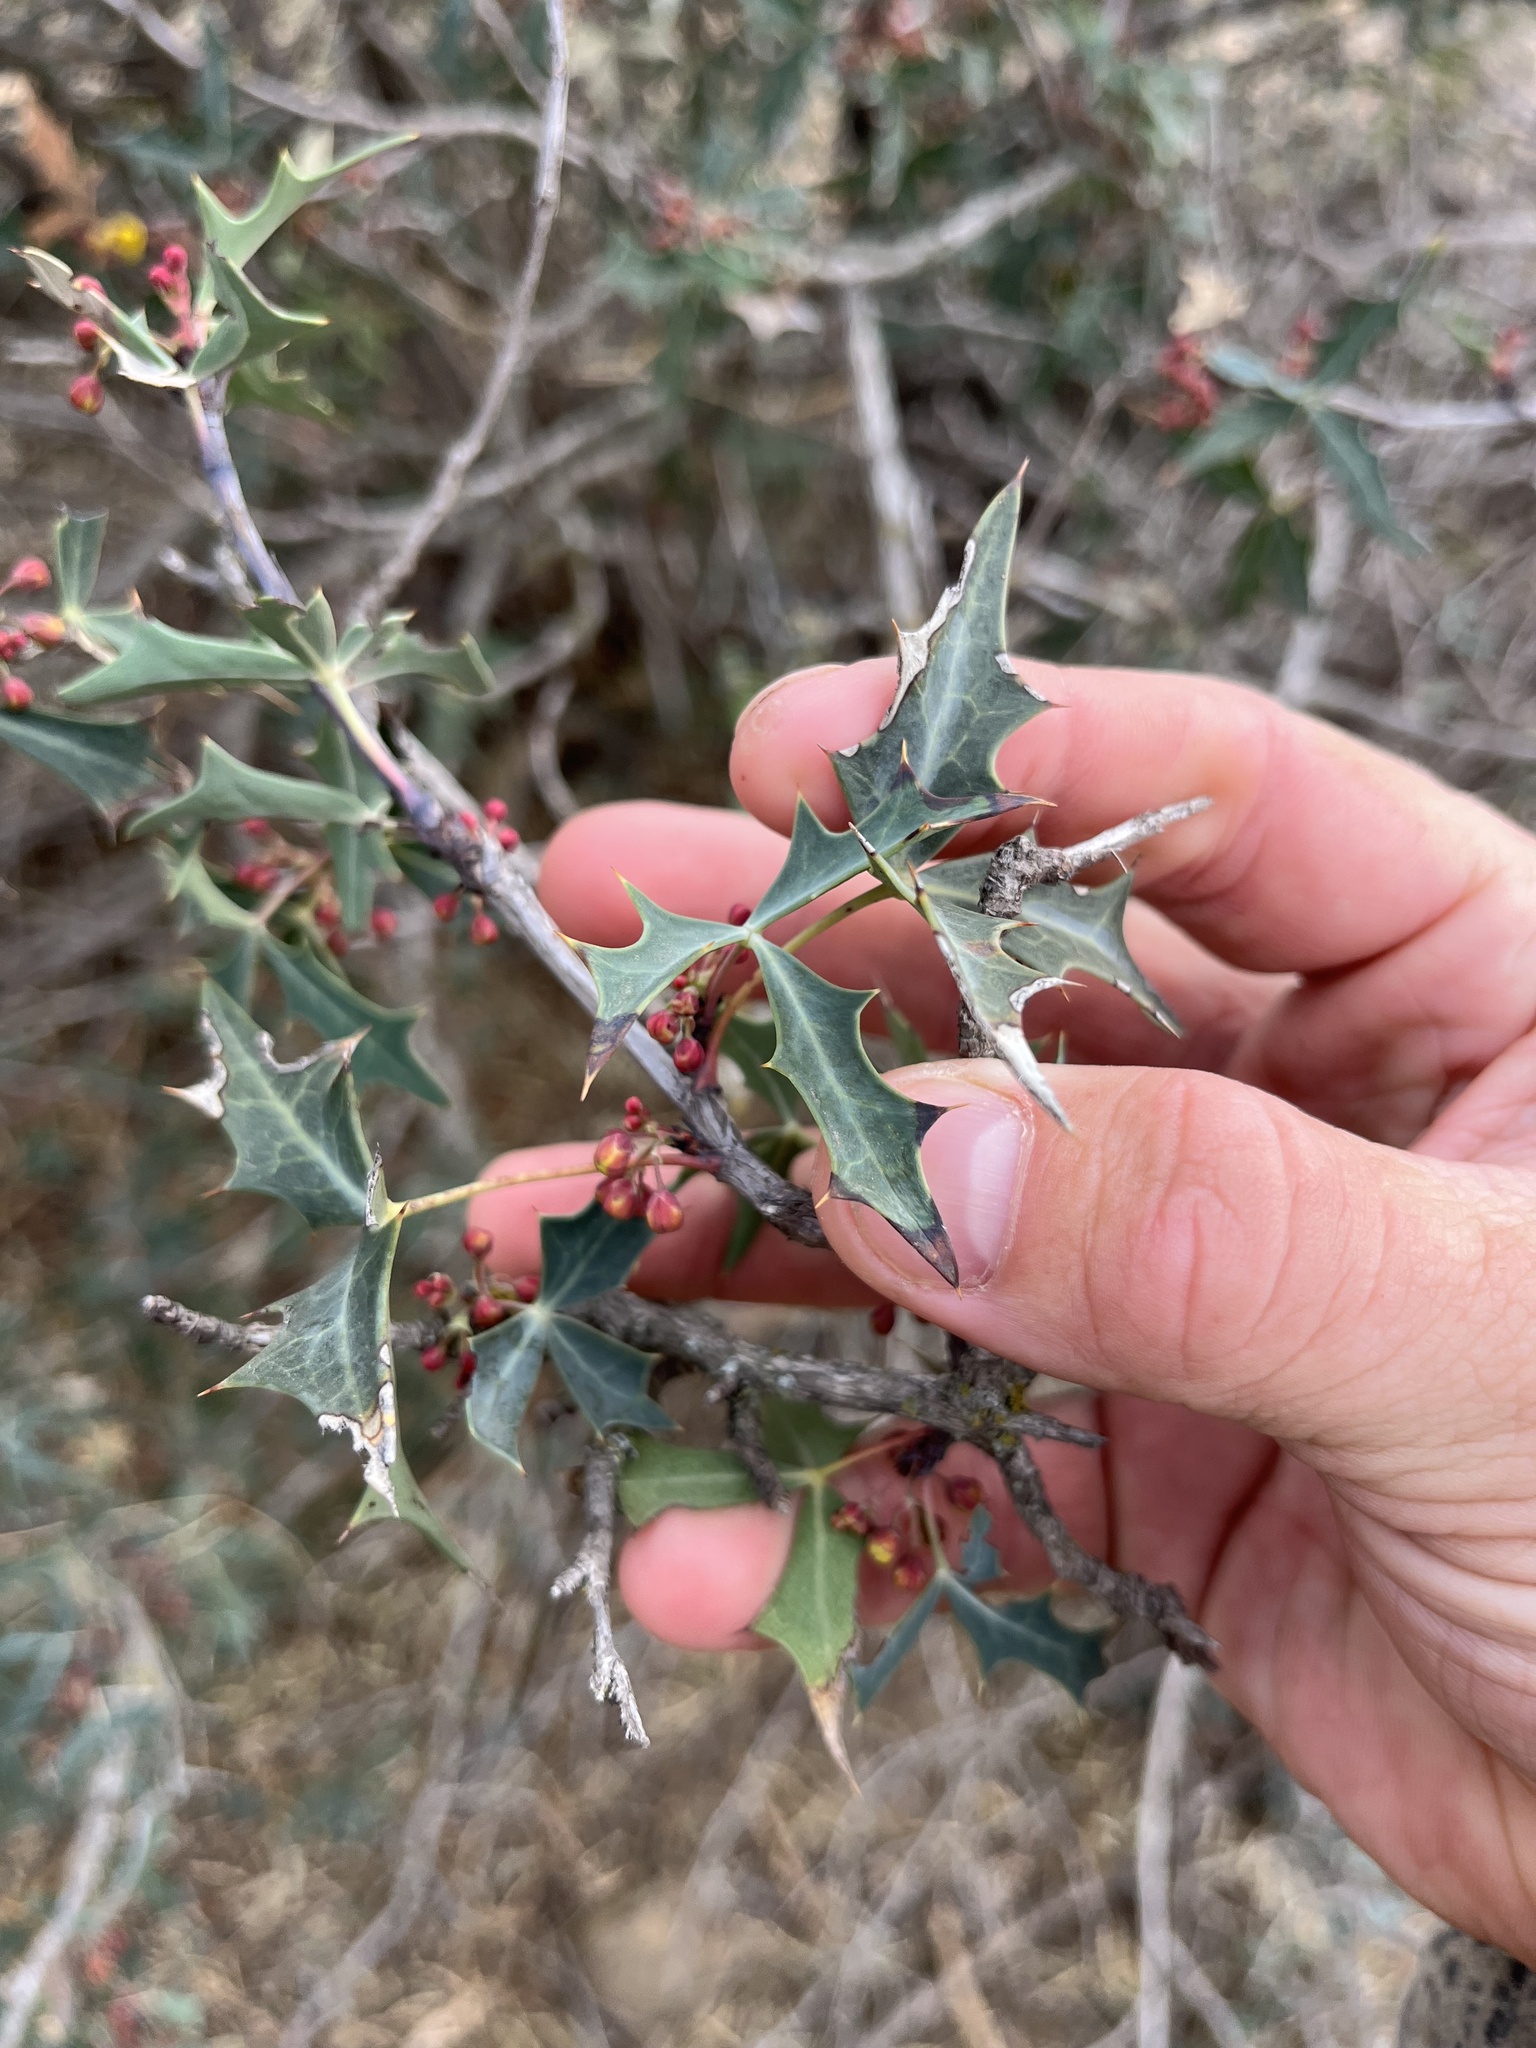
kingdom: Plantae
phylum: Tracheophyta
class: Magnoliopsida
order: Ranunculales
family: Berberidaceae
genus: Alloberberis
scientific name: Alloberberis trifoliolata
